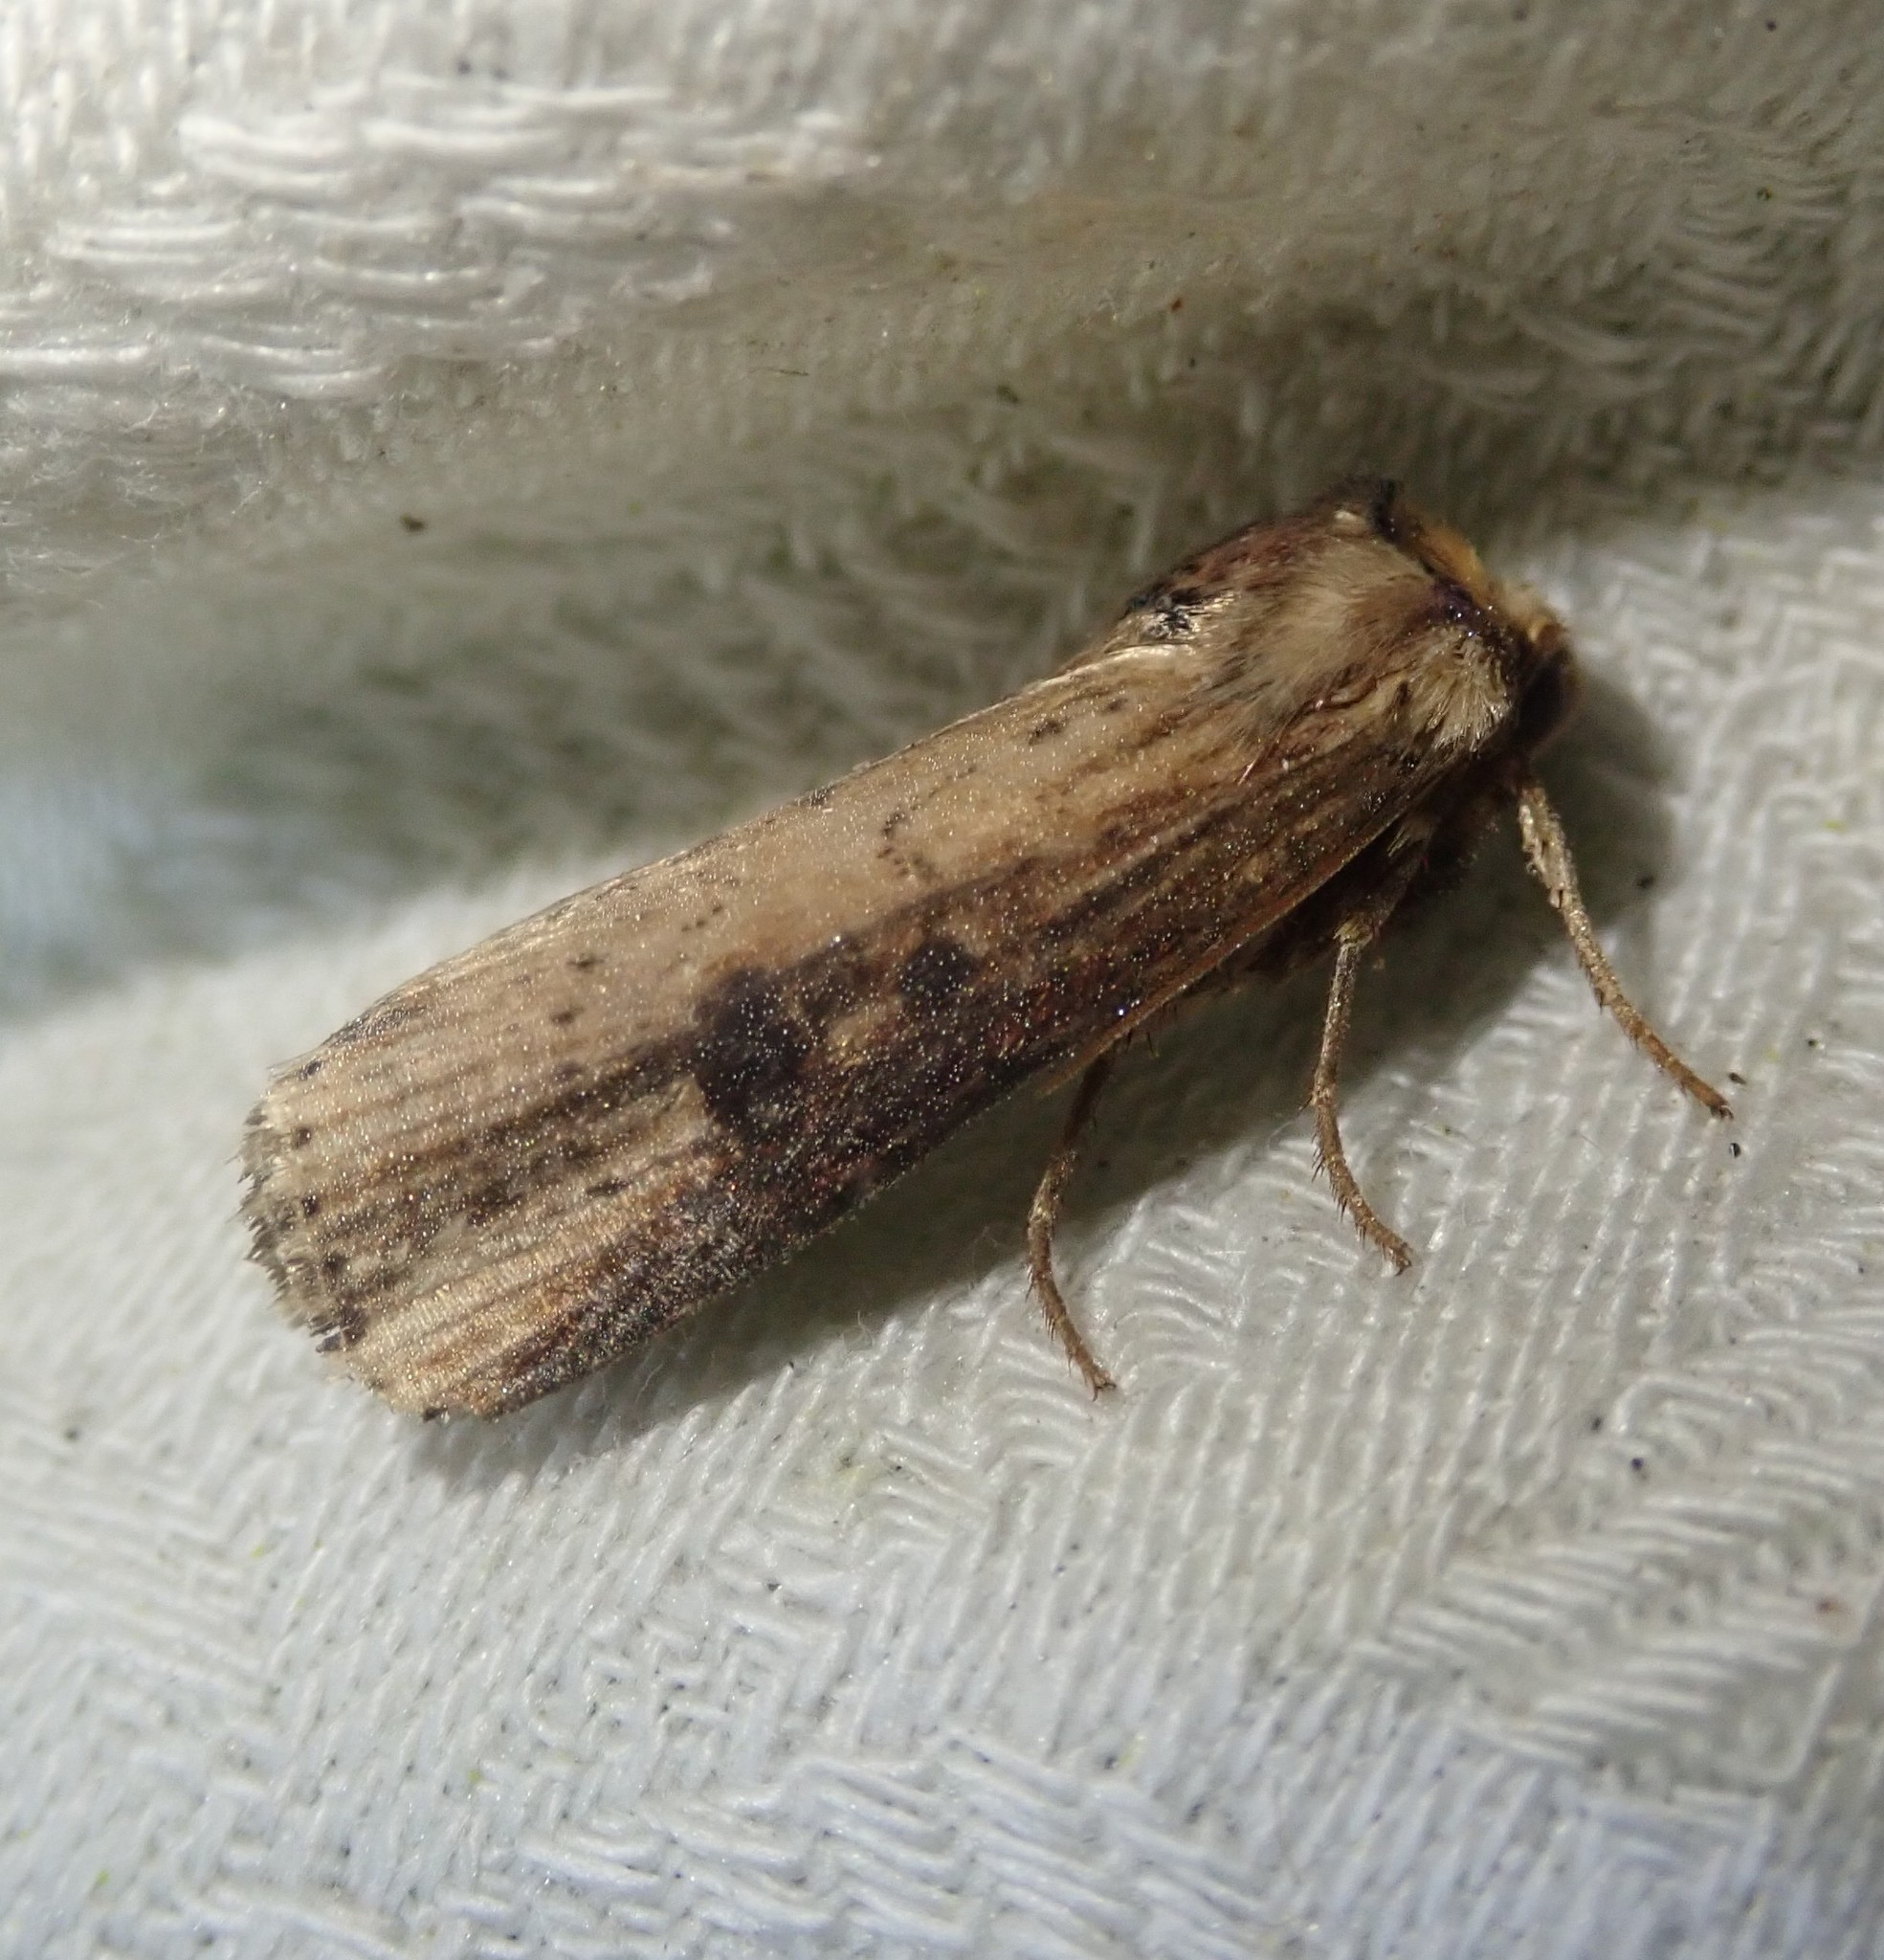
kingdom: Animalia
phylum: Arthropoda
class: Insecta
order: Lepidoptera
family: Noctuidae
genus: Axylia
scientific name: Axylia putris
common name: Flame
